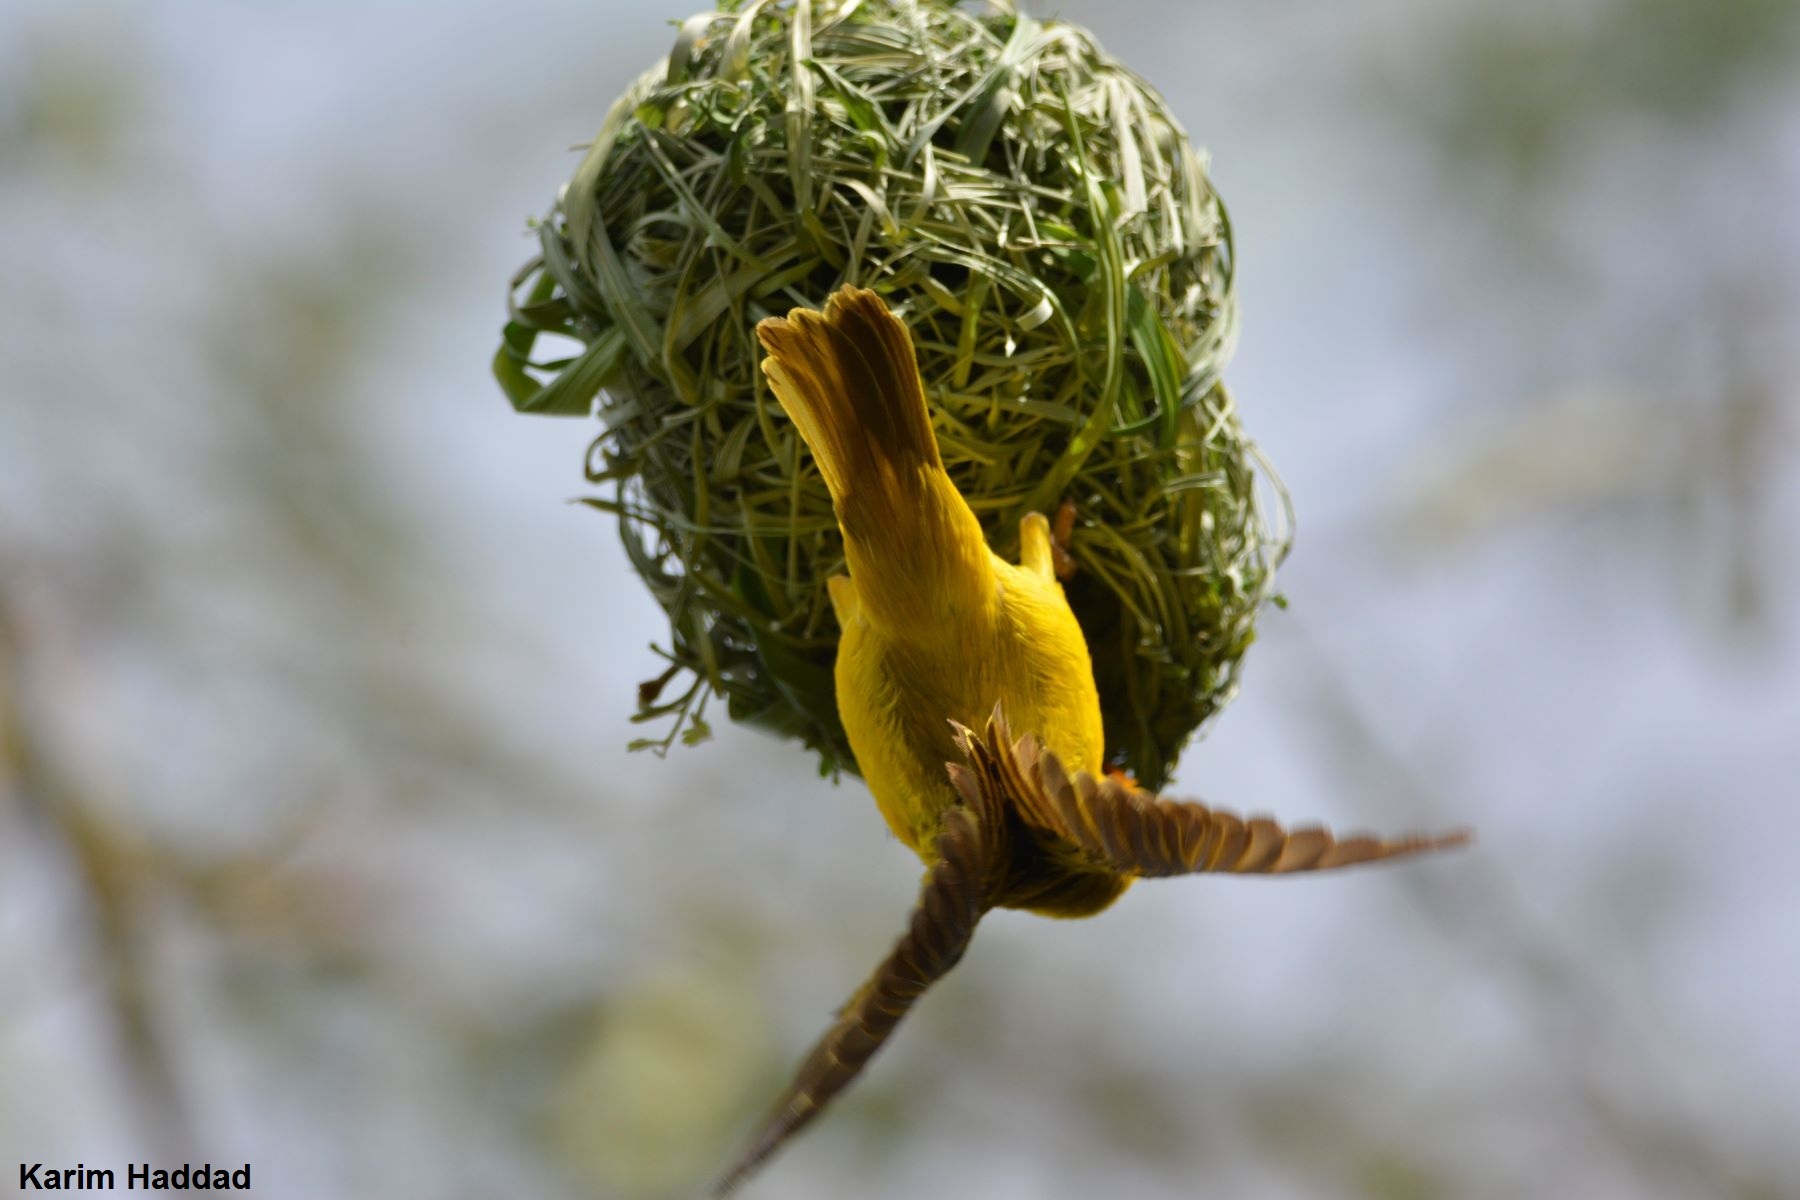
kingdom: Animalia
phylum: Chordata
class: Aves
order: Passeriformes
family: Ploceidae
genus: Ploceus
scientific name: Ploceus vitellinus
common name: Vitelline masked weaver
